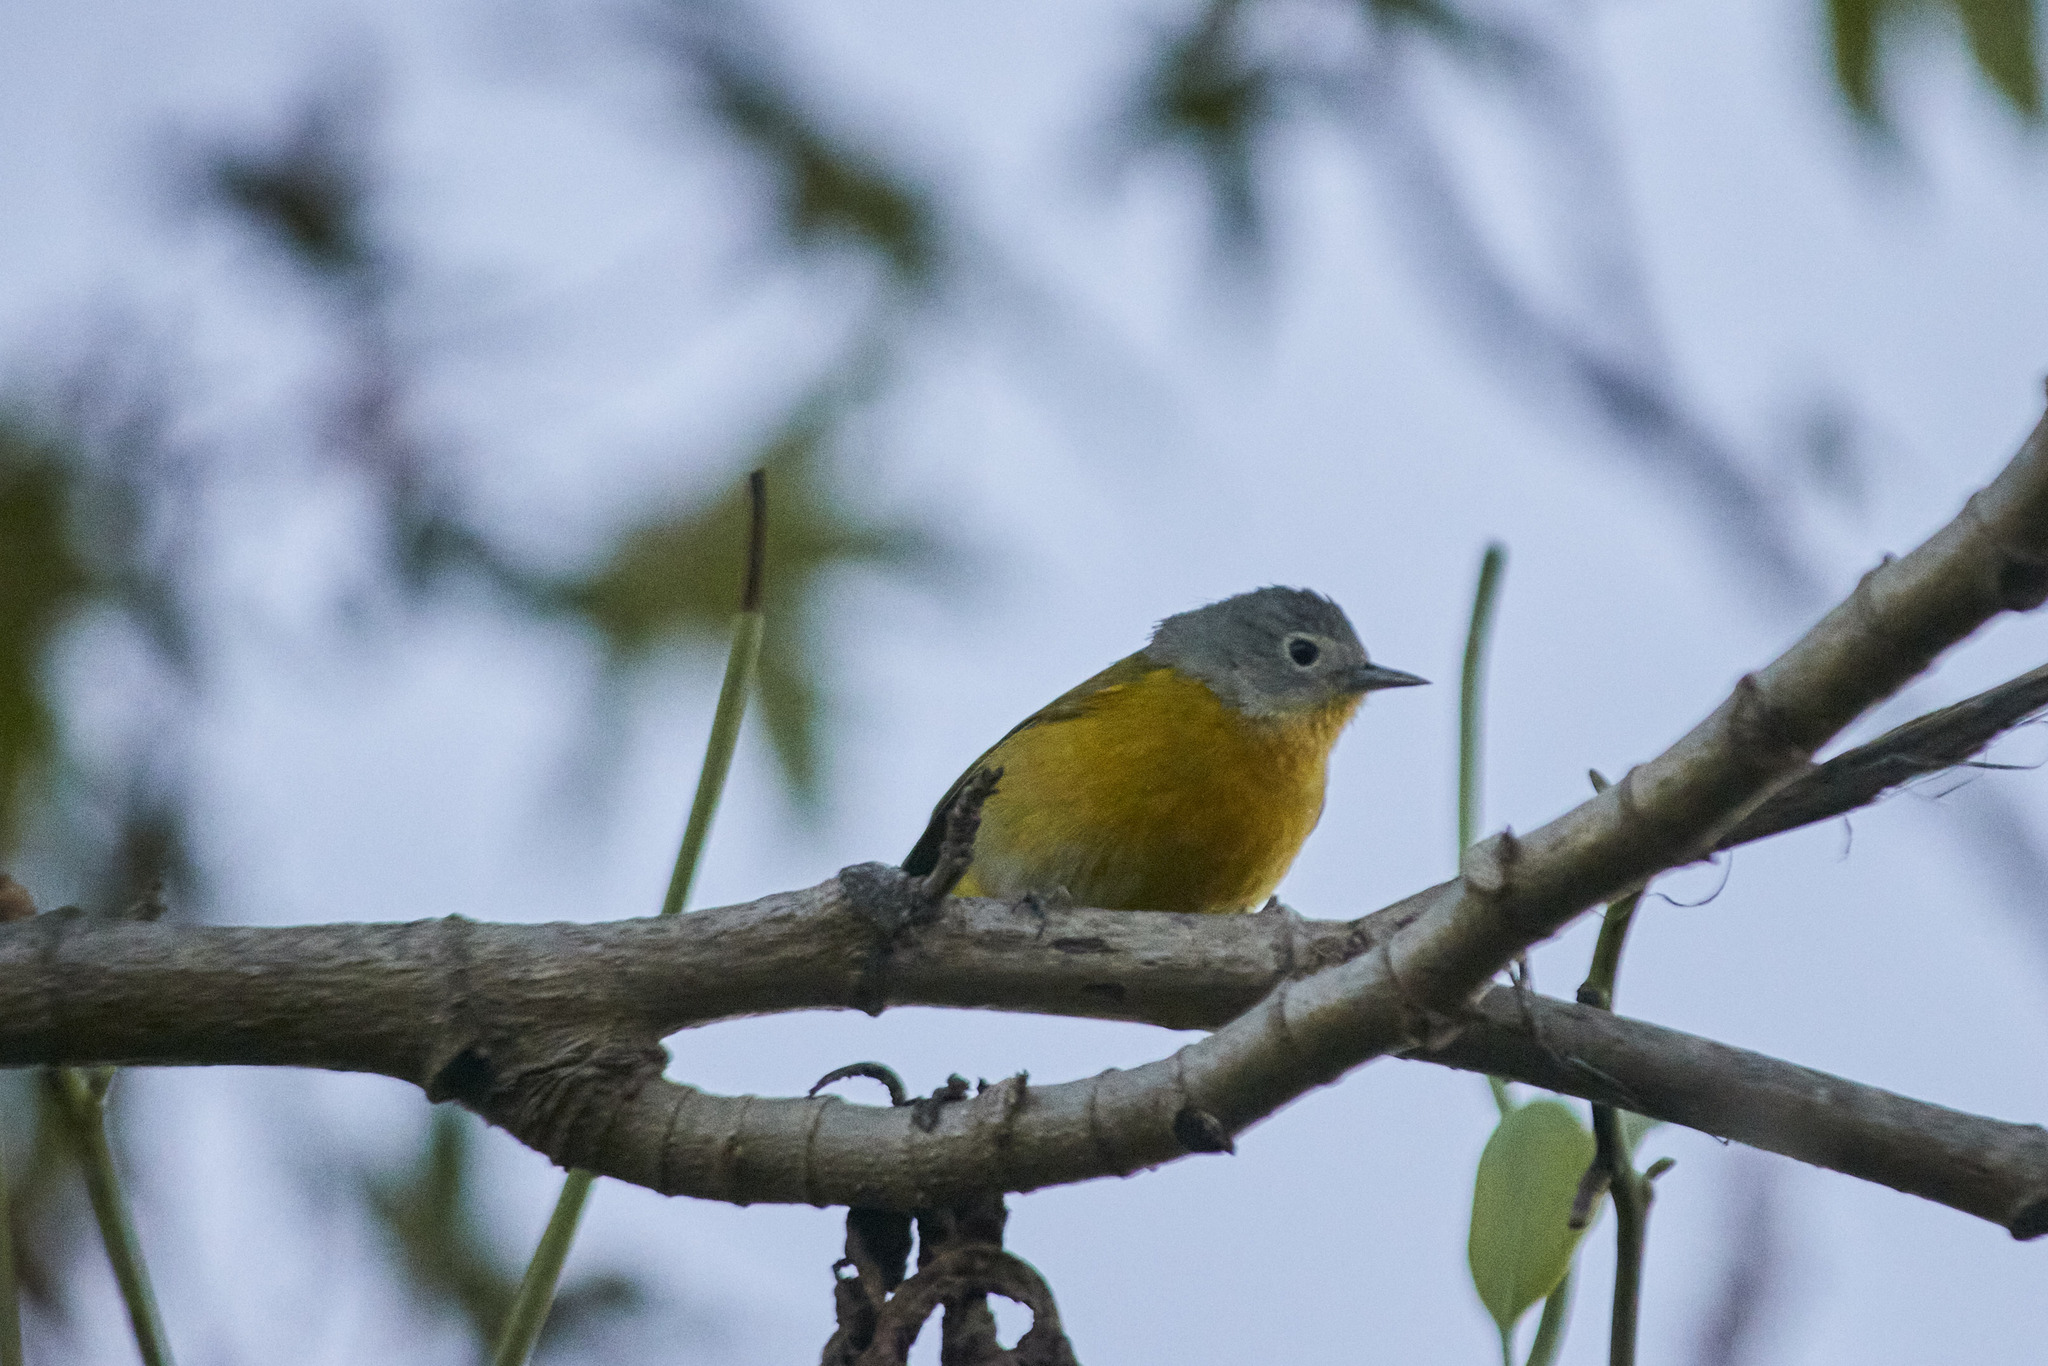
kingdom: Animalia
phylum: Chordata
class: Aves
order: Passeriformes
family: Parulidae
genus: Leiothlypis
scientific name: Leiothlypis ruficapilla
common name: Nashville warbler
